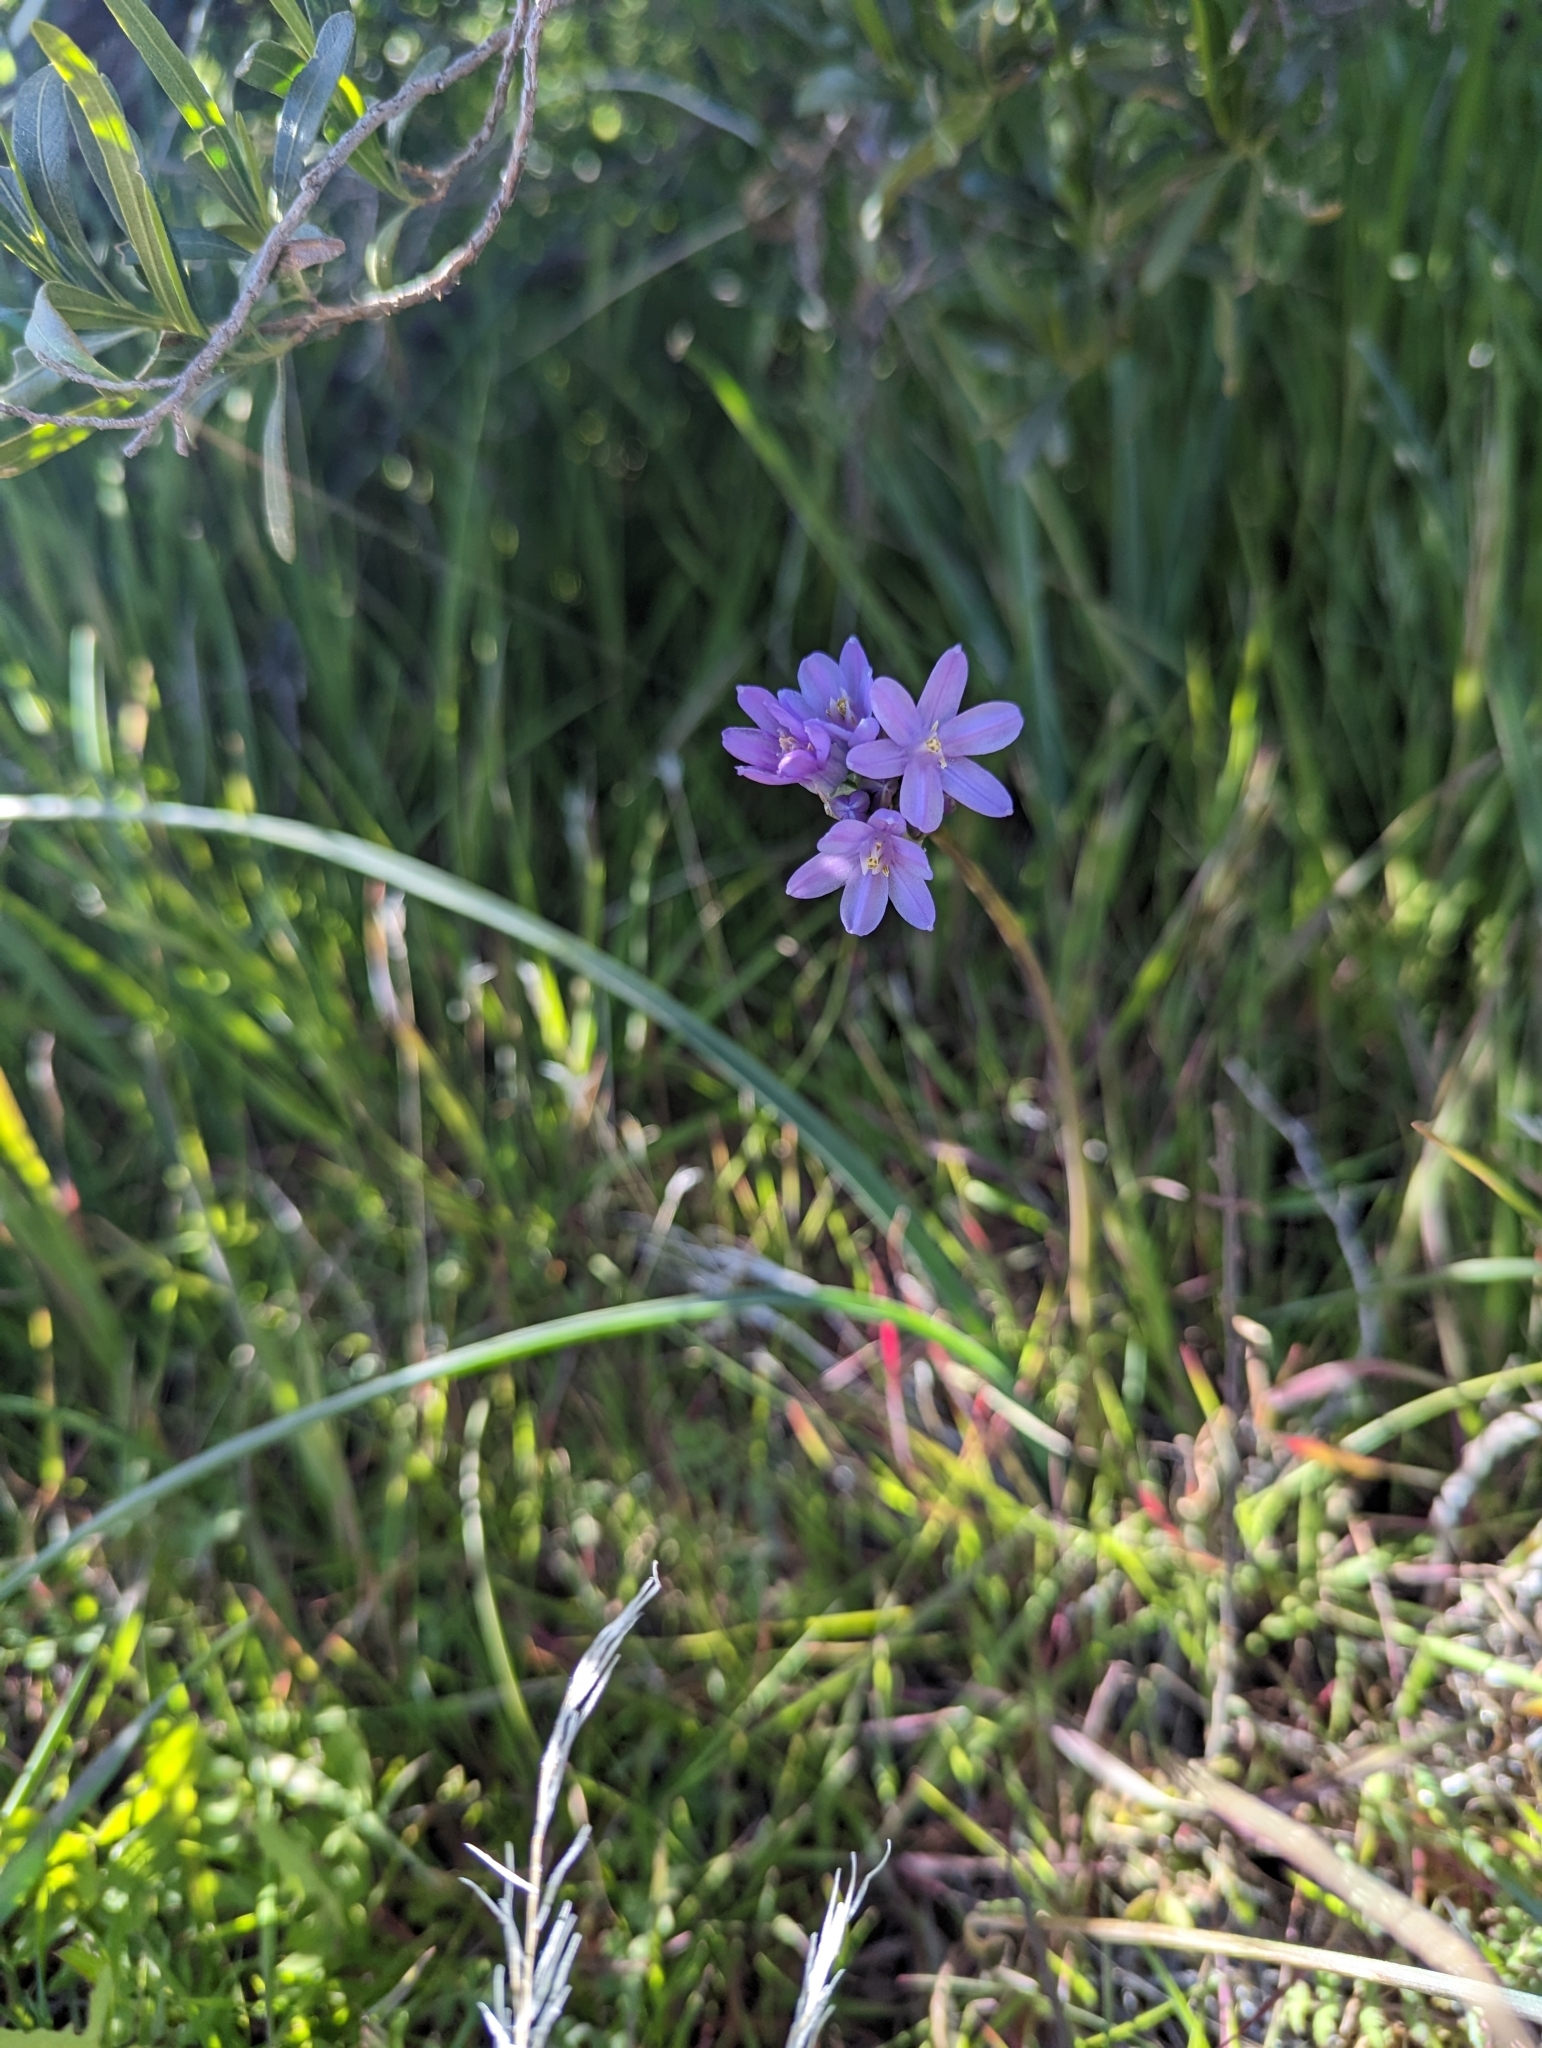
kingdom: Plantae
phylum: Tracheophyta
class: Liliopsida
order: Asparagales
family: Asparagaceae
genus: Dipterostemon
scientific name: Dipterostemon capitatus
